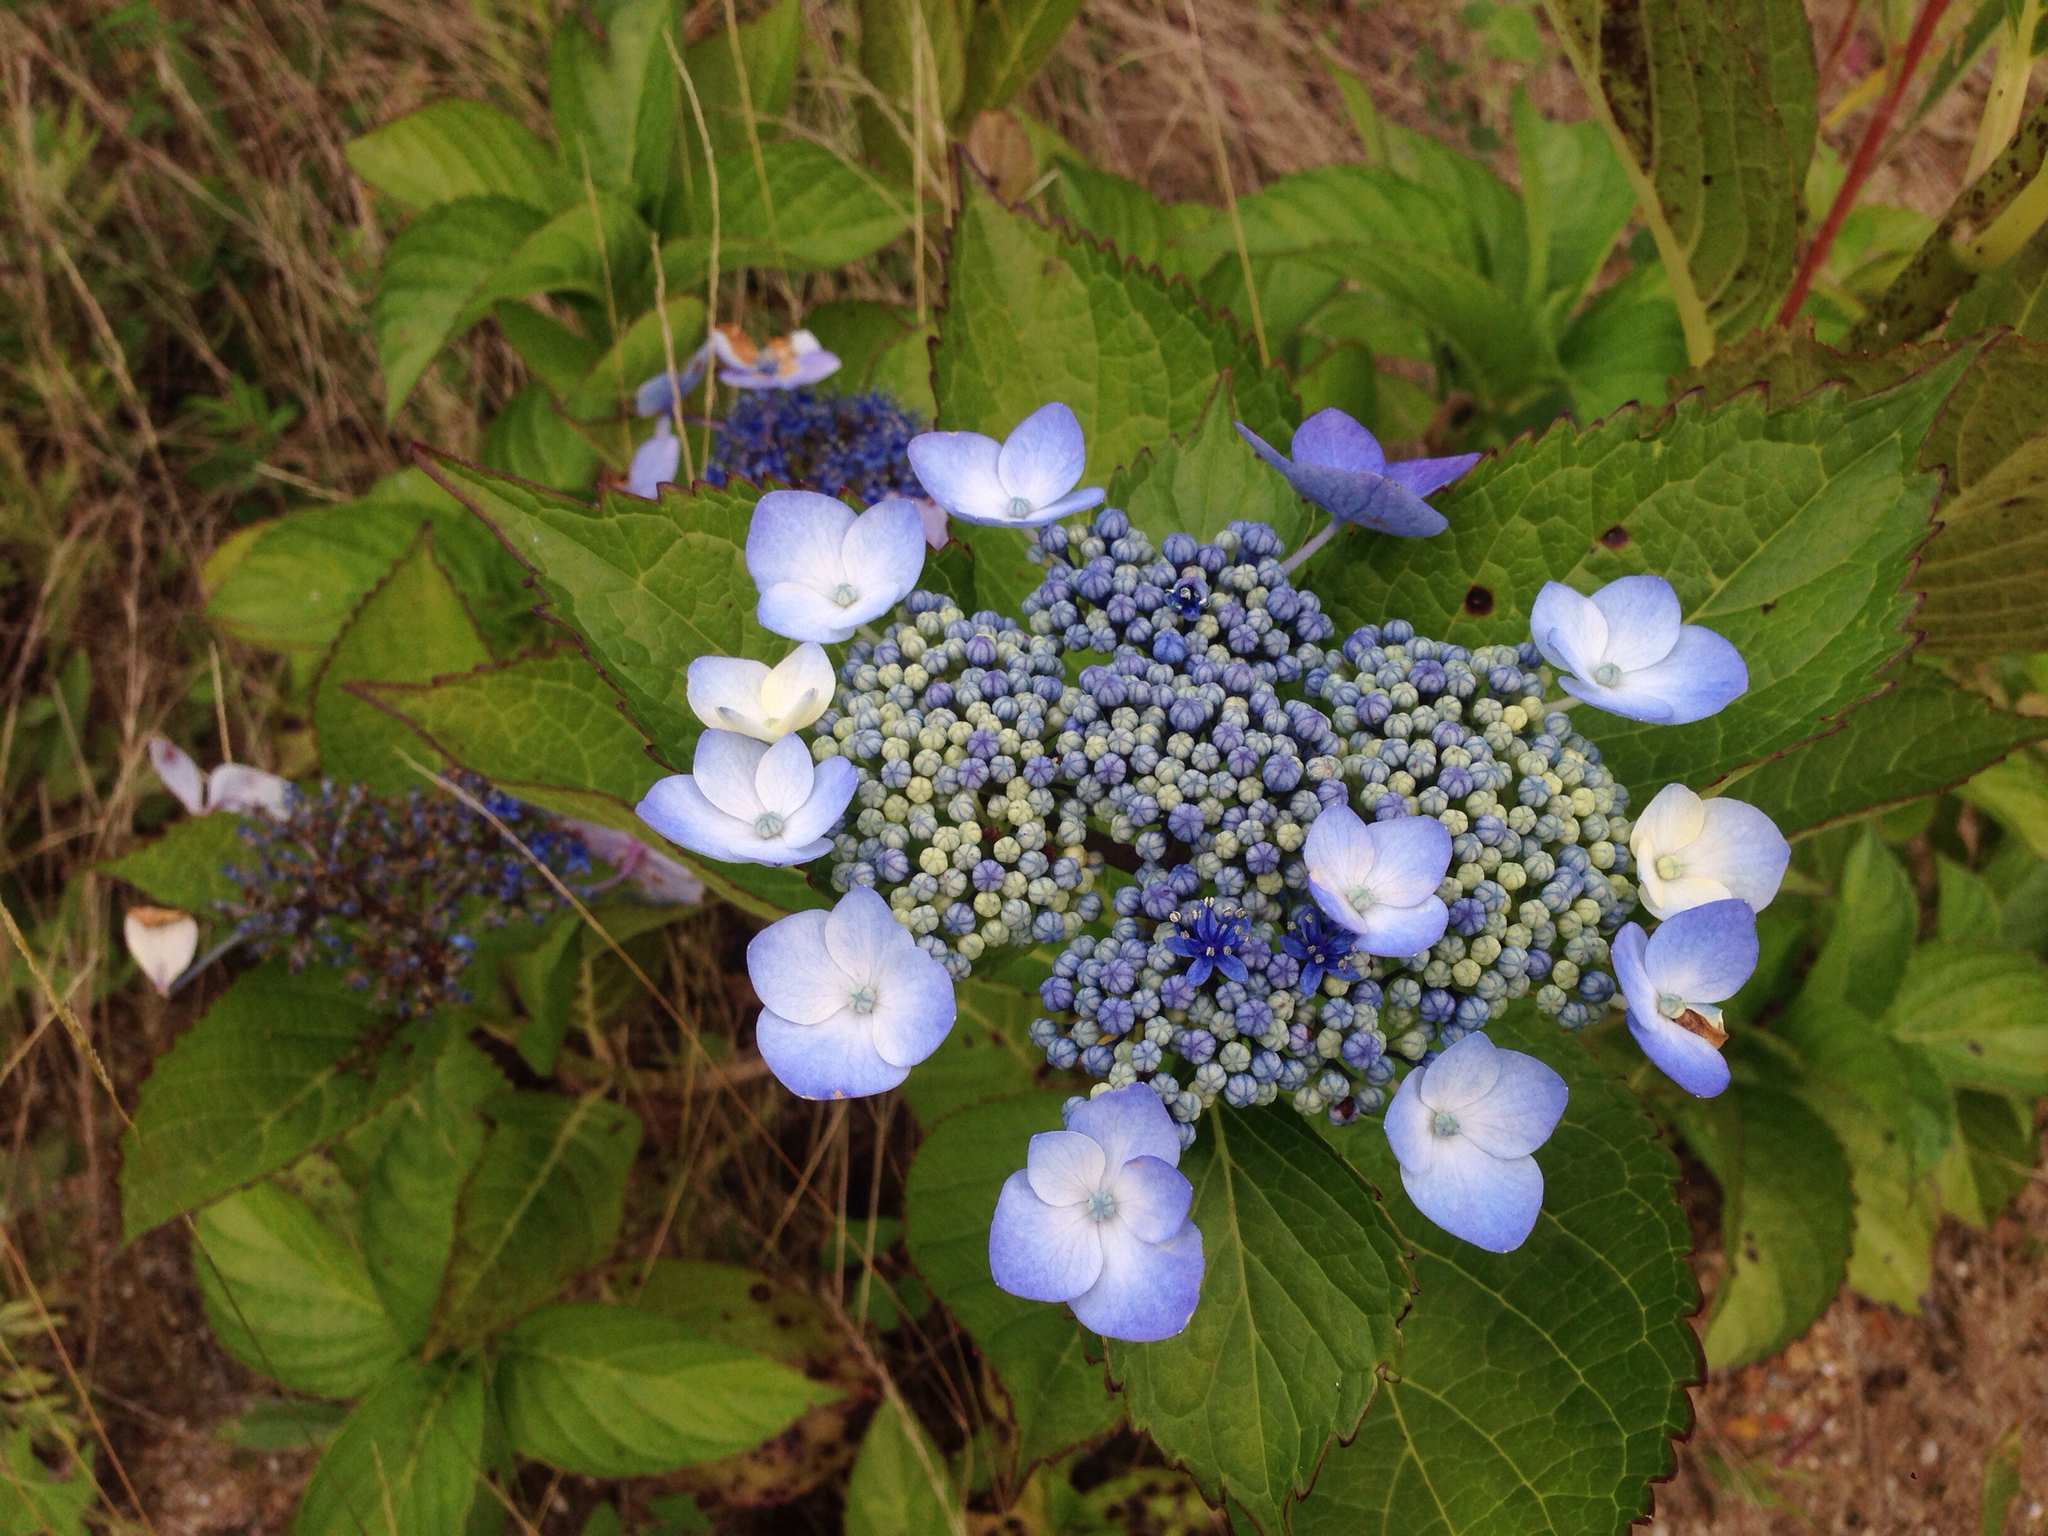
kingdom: Plantae
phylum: Tracheophyta
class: Magnoliopsida
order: Cornales
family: Hydrangeaceae
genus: Hydrangea
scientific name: Hydrangea serrata
